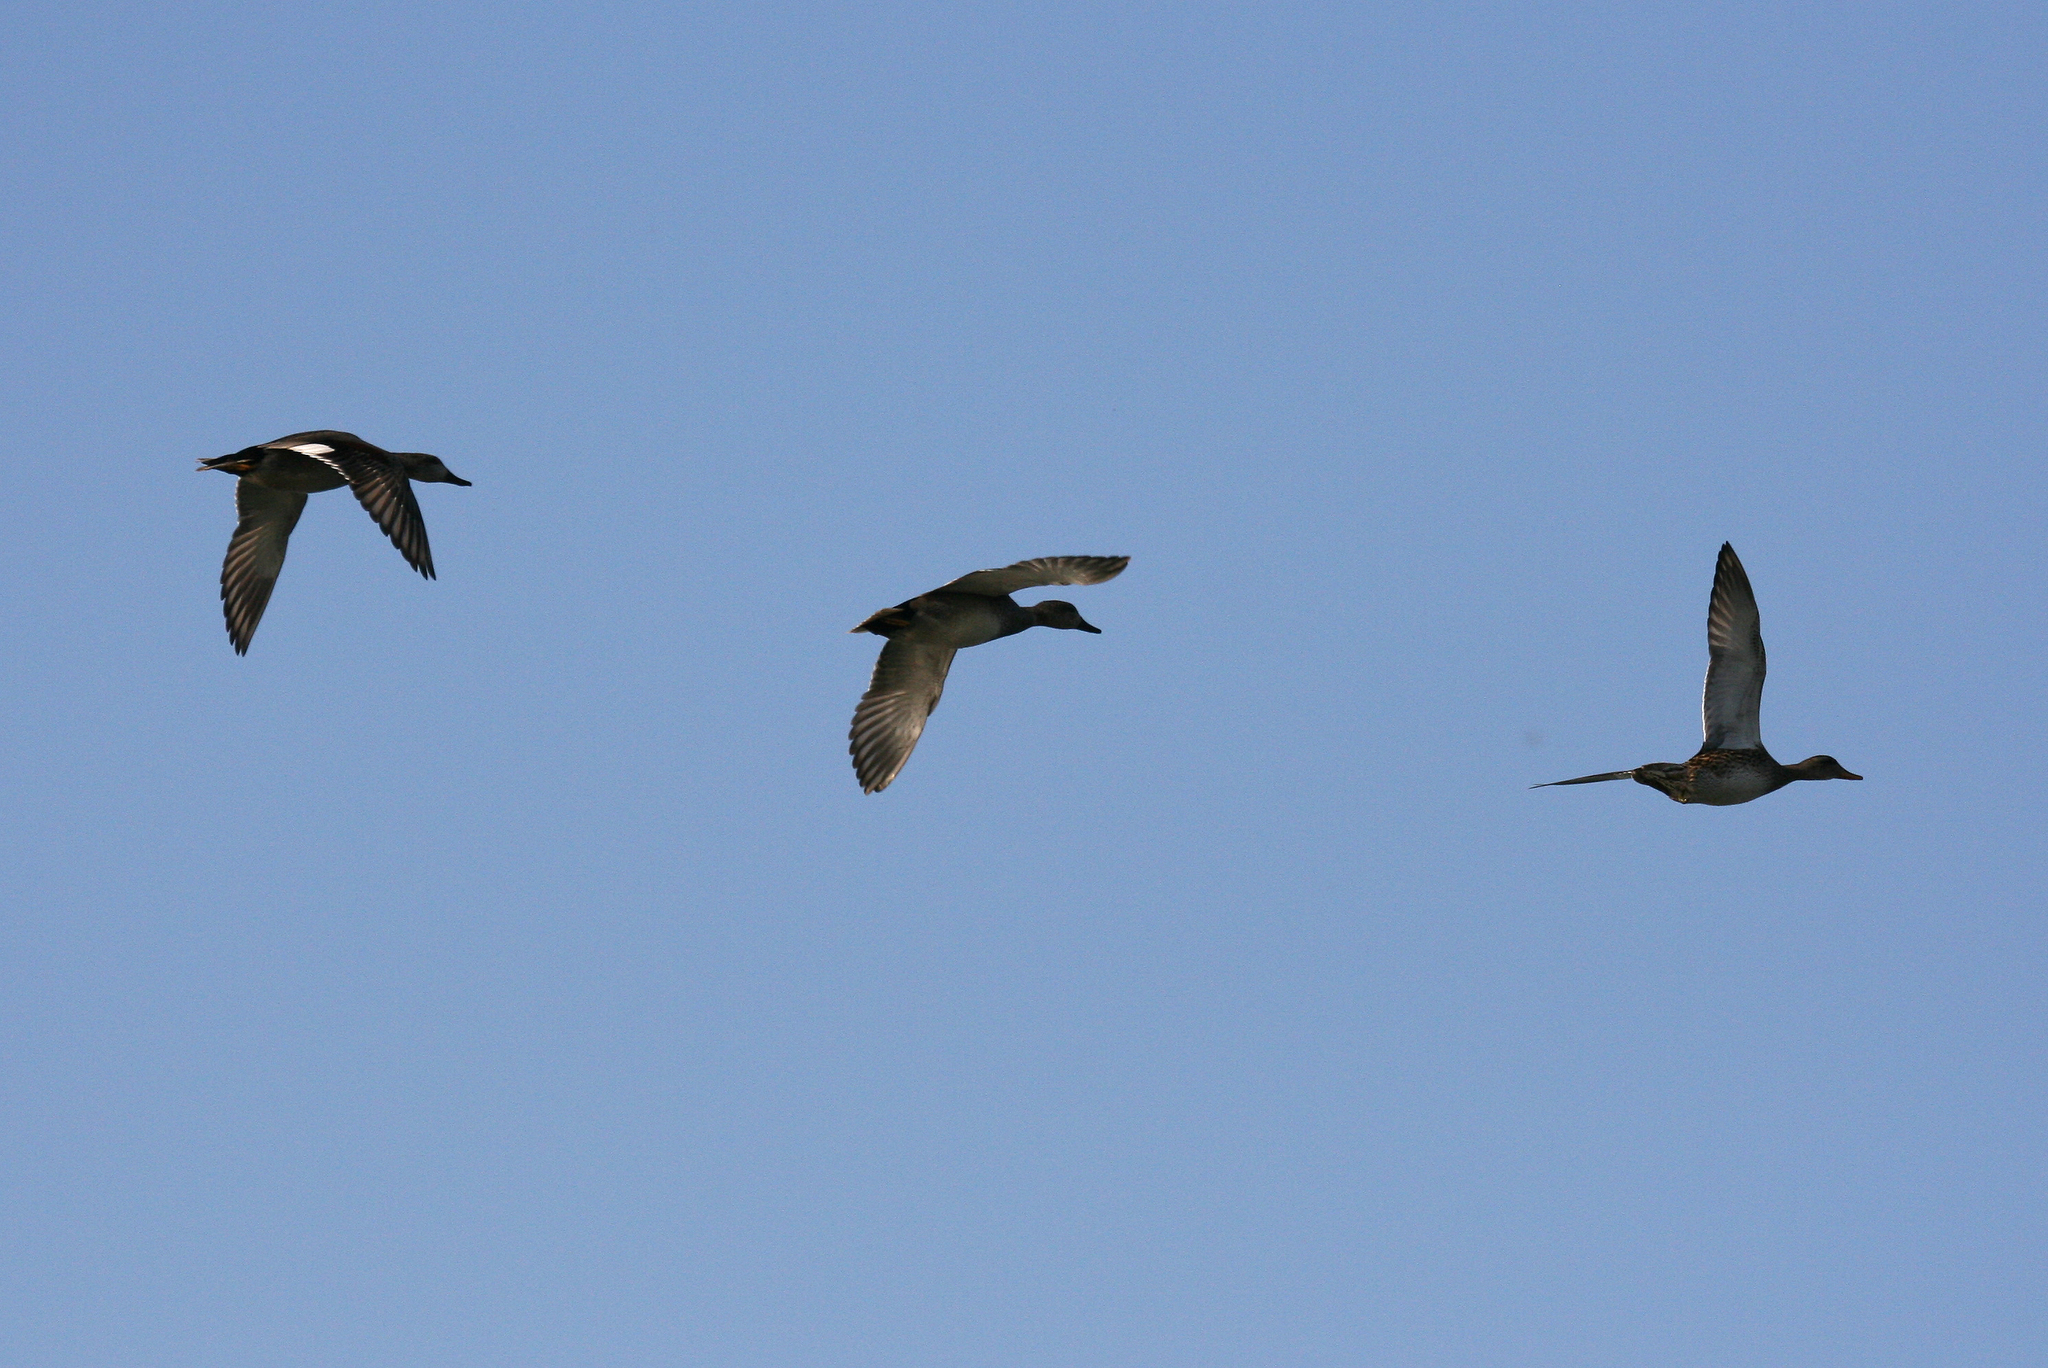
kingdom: Animalia
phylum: Chordata
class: Aves
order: Anseriformes
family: Anatidae
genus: Mareca
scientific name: Mareca strepera
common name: Gadwall
